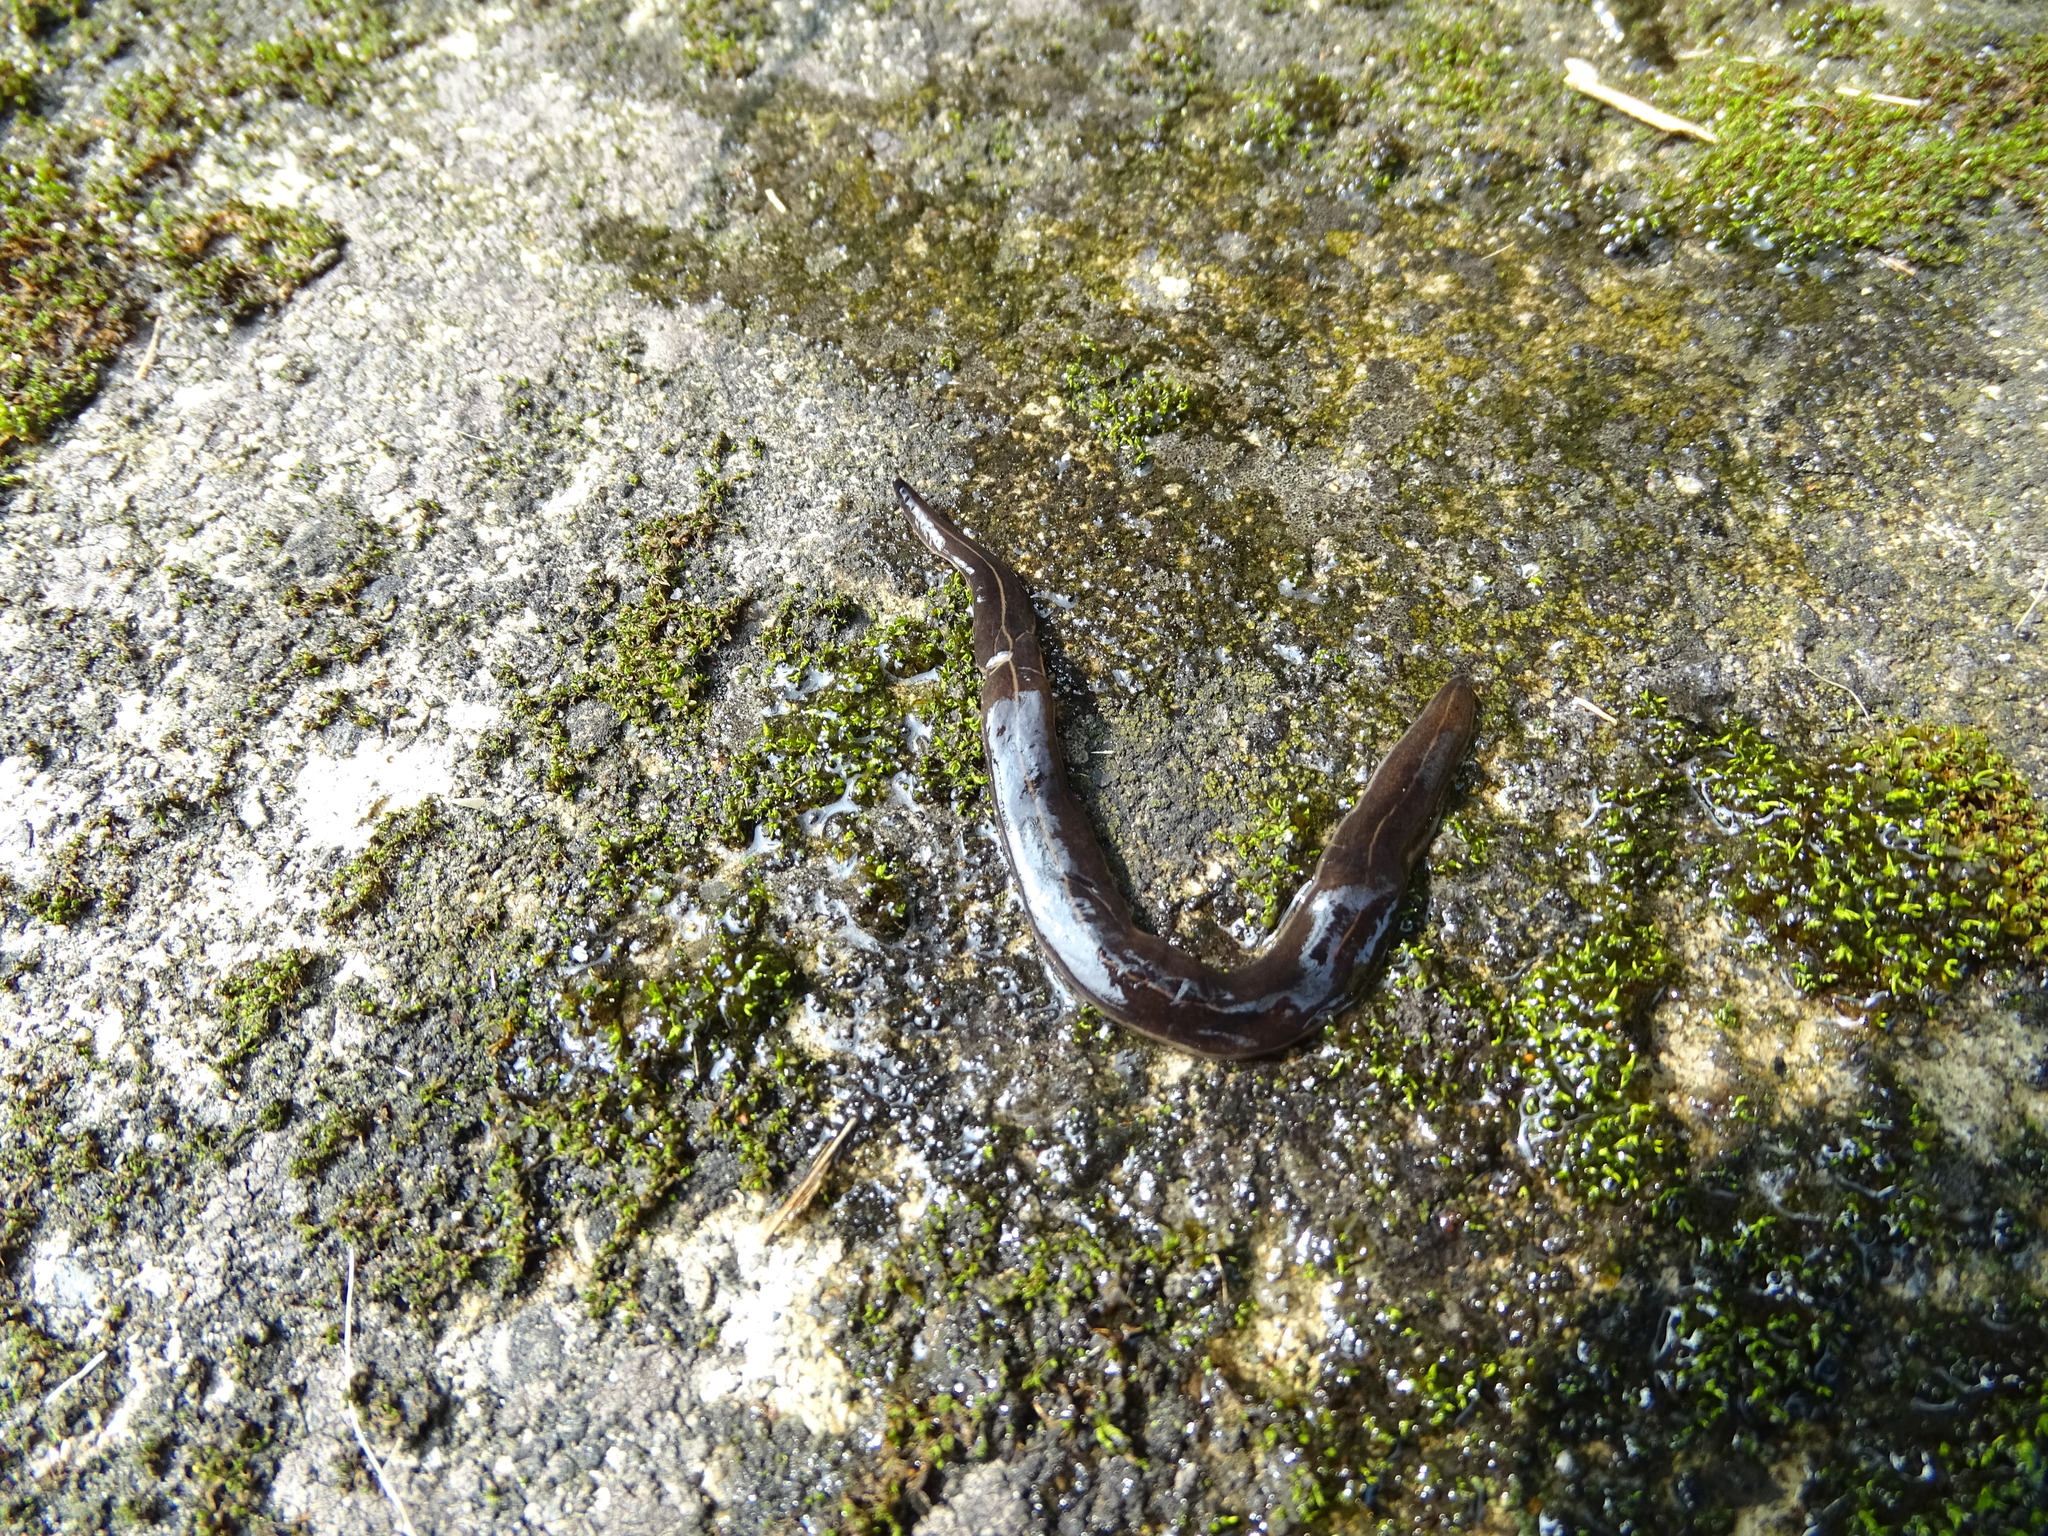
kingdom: Animalia
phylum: Platyhelminthes
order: Tricladida
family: Geoplanidae
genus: Platydemus
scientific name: Platydemus manokwari
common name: New guinea flatworm
